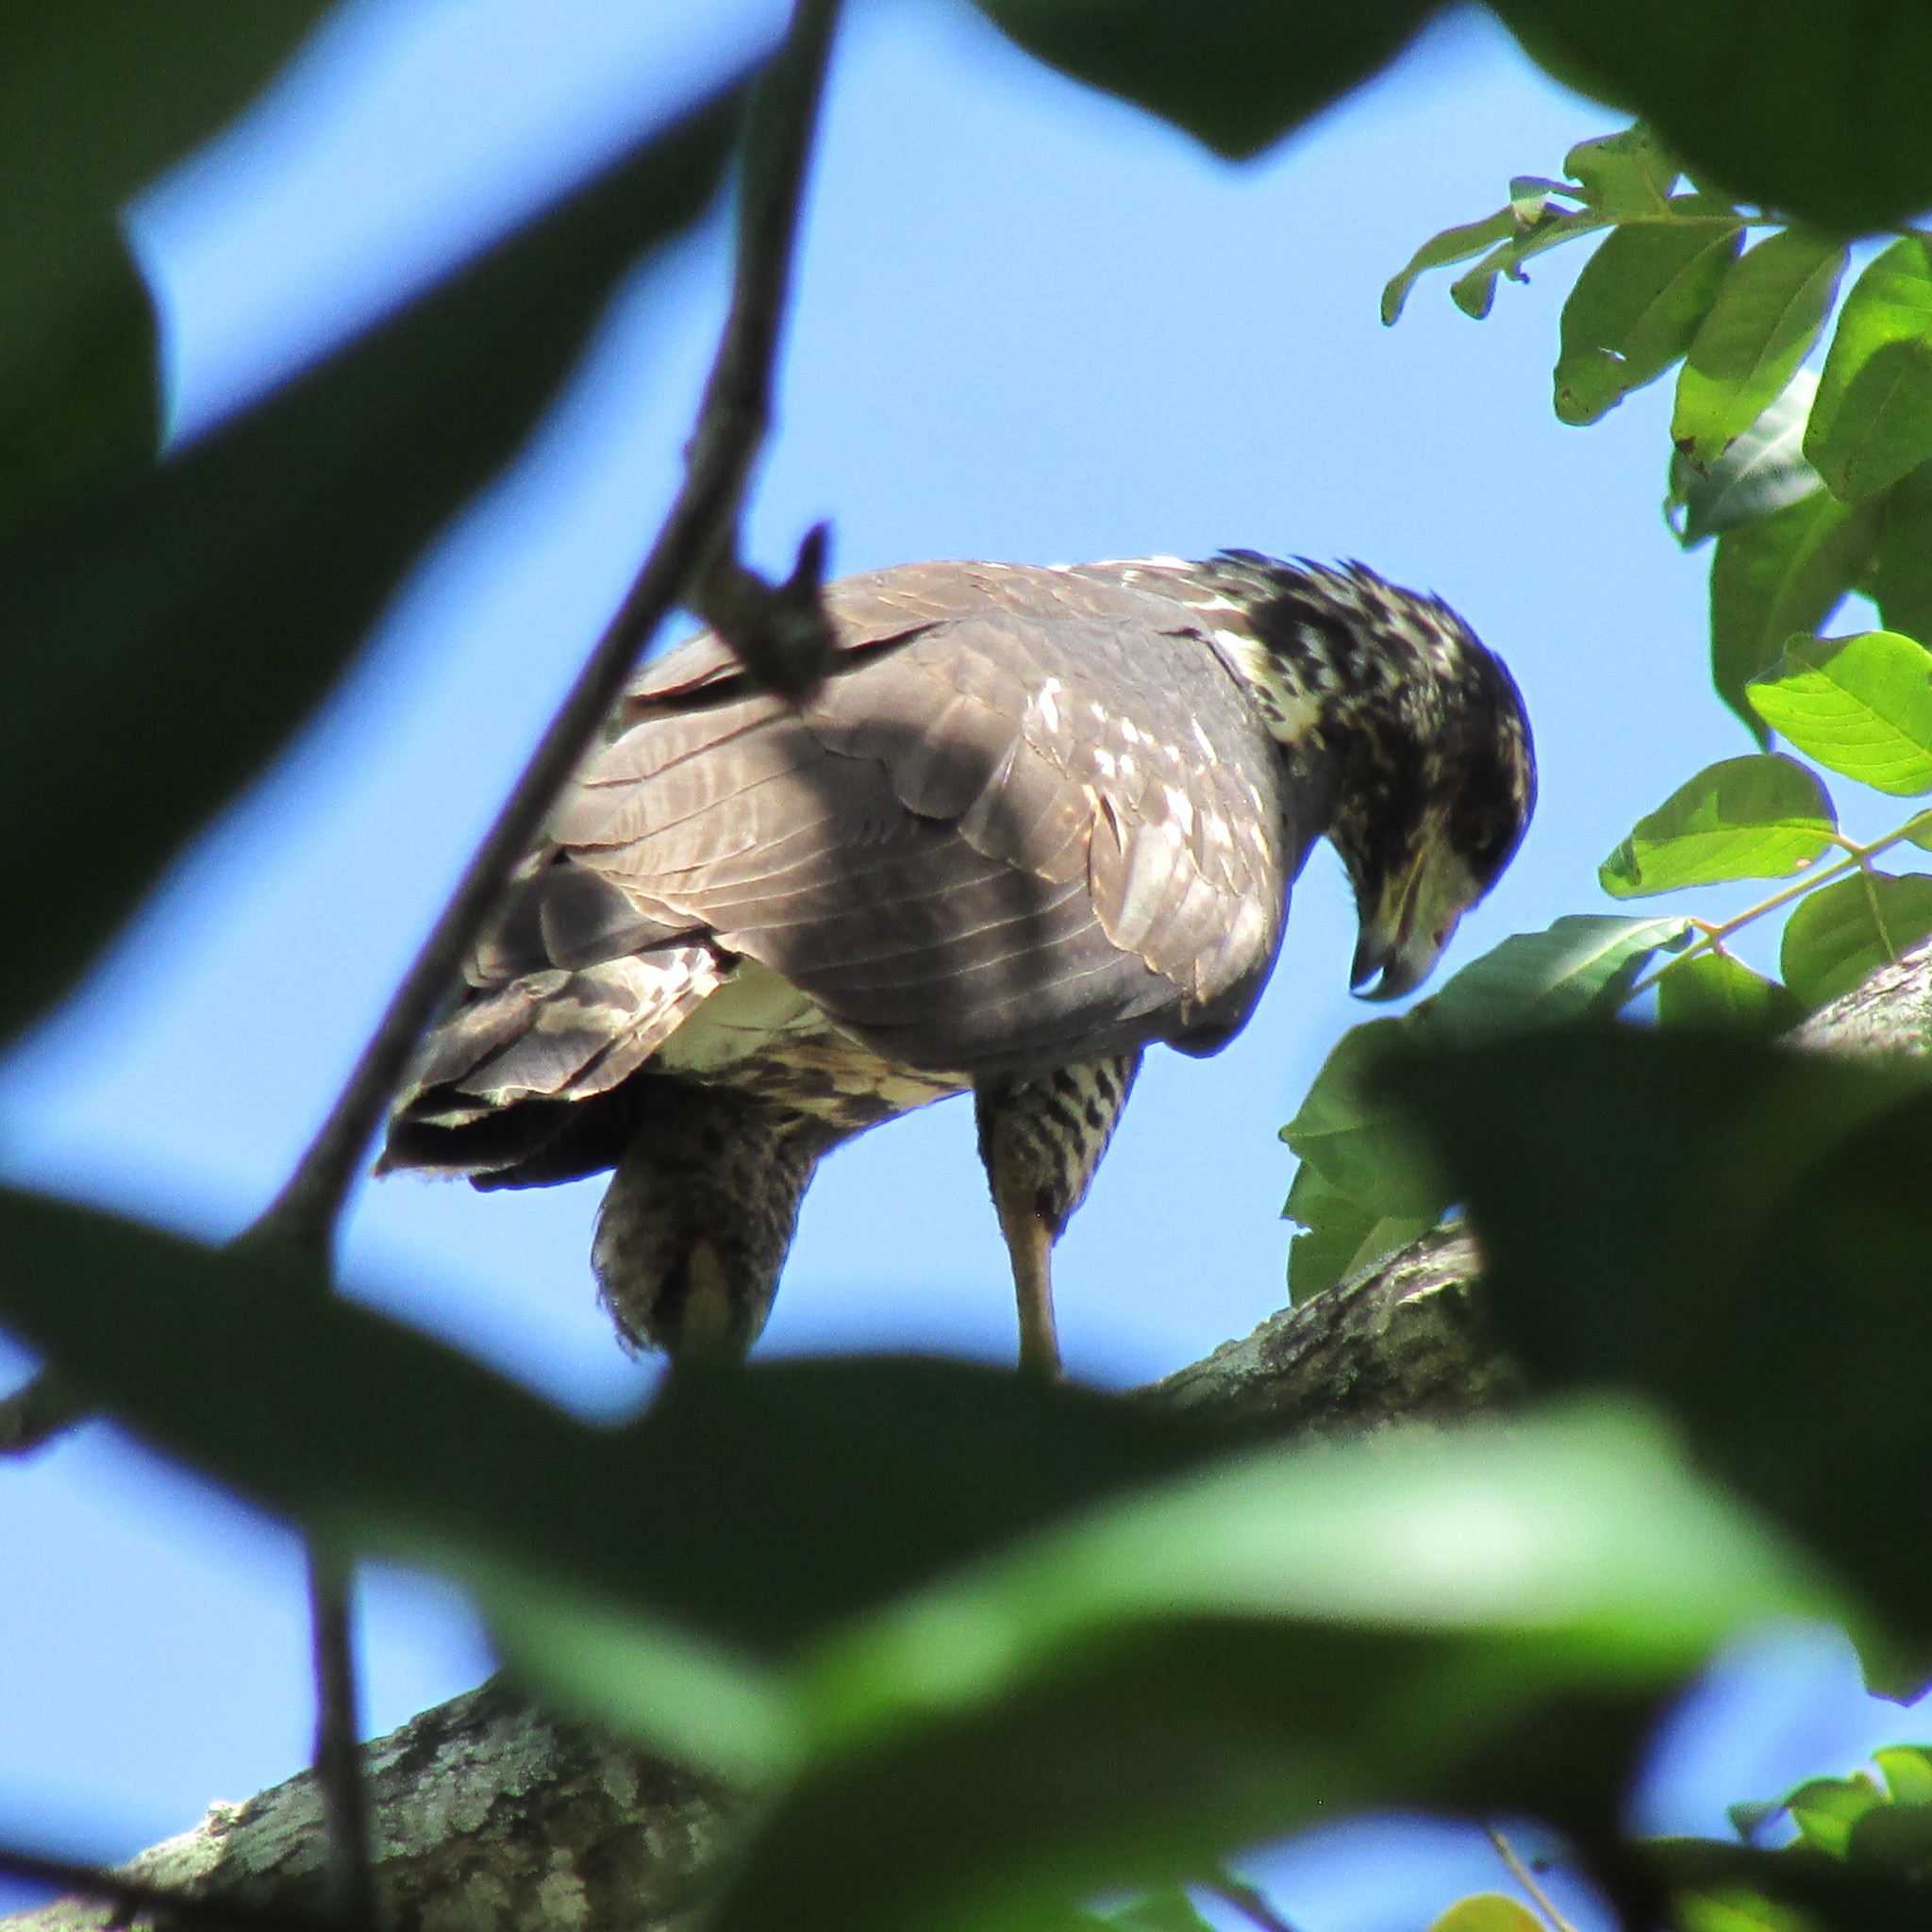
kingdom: Animalia
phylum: Chordata
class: Aves
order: Accipitriformes
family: Accipitridae
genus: Buteogallus
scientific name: Buteogallus anthracinus
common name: Common black hawk
